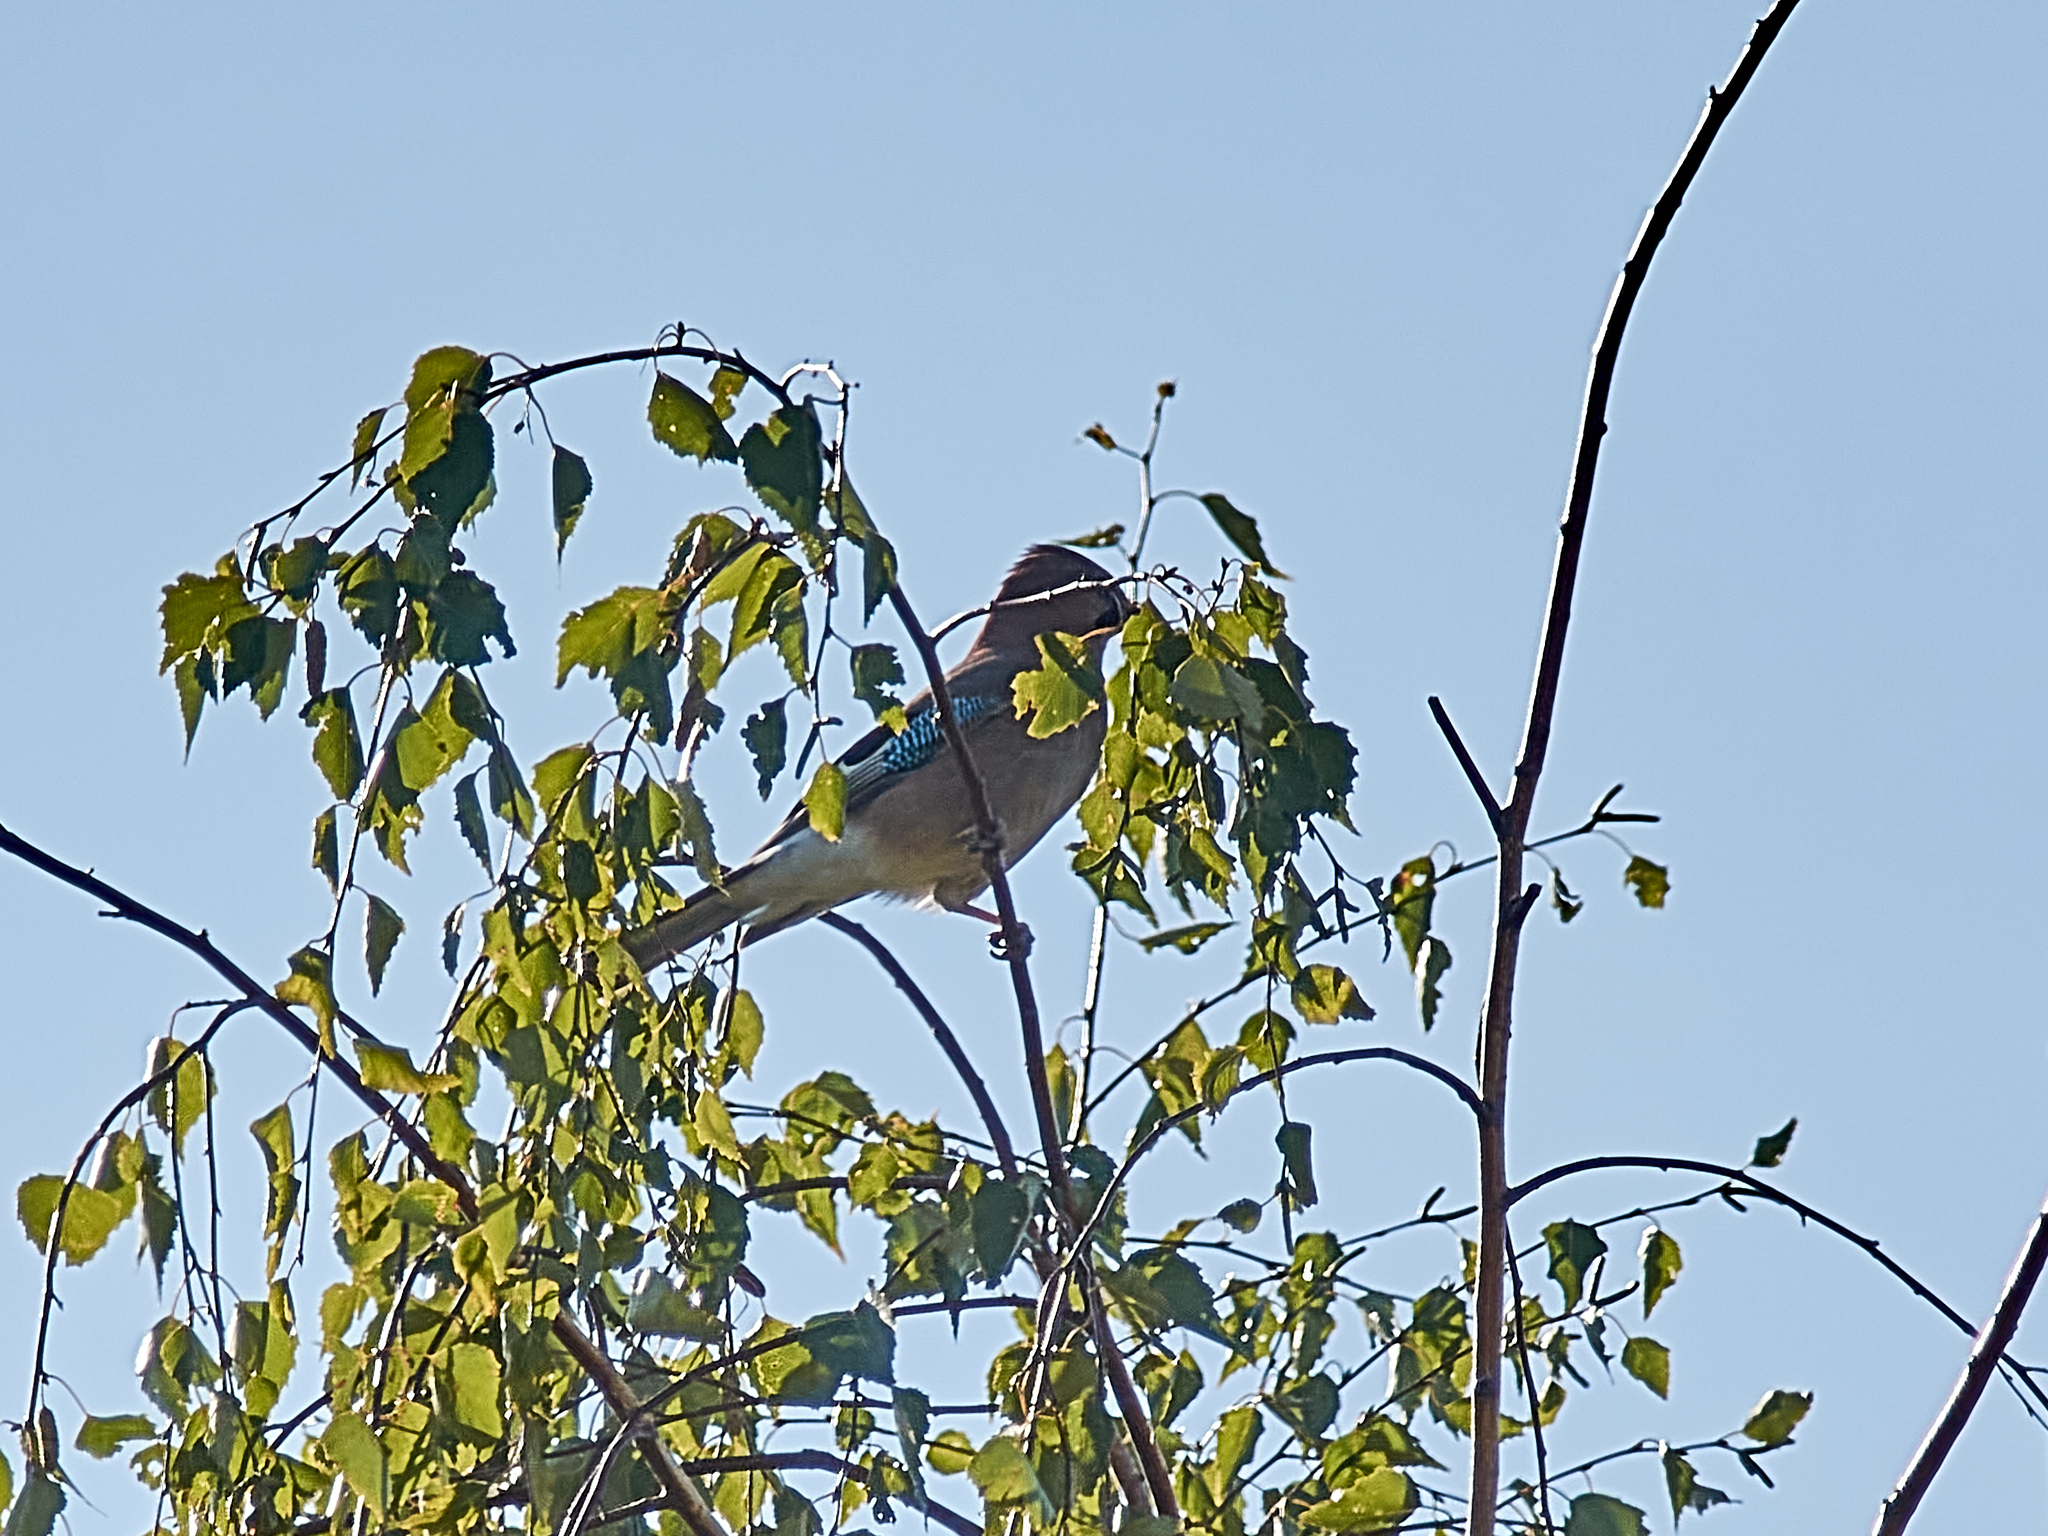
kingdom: Animalia
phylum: Chordata
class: Aves
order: Passeriformes
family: Corvidae
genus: Garrulus
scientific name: Garrulus glandarius
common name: Eurasian jay
